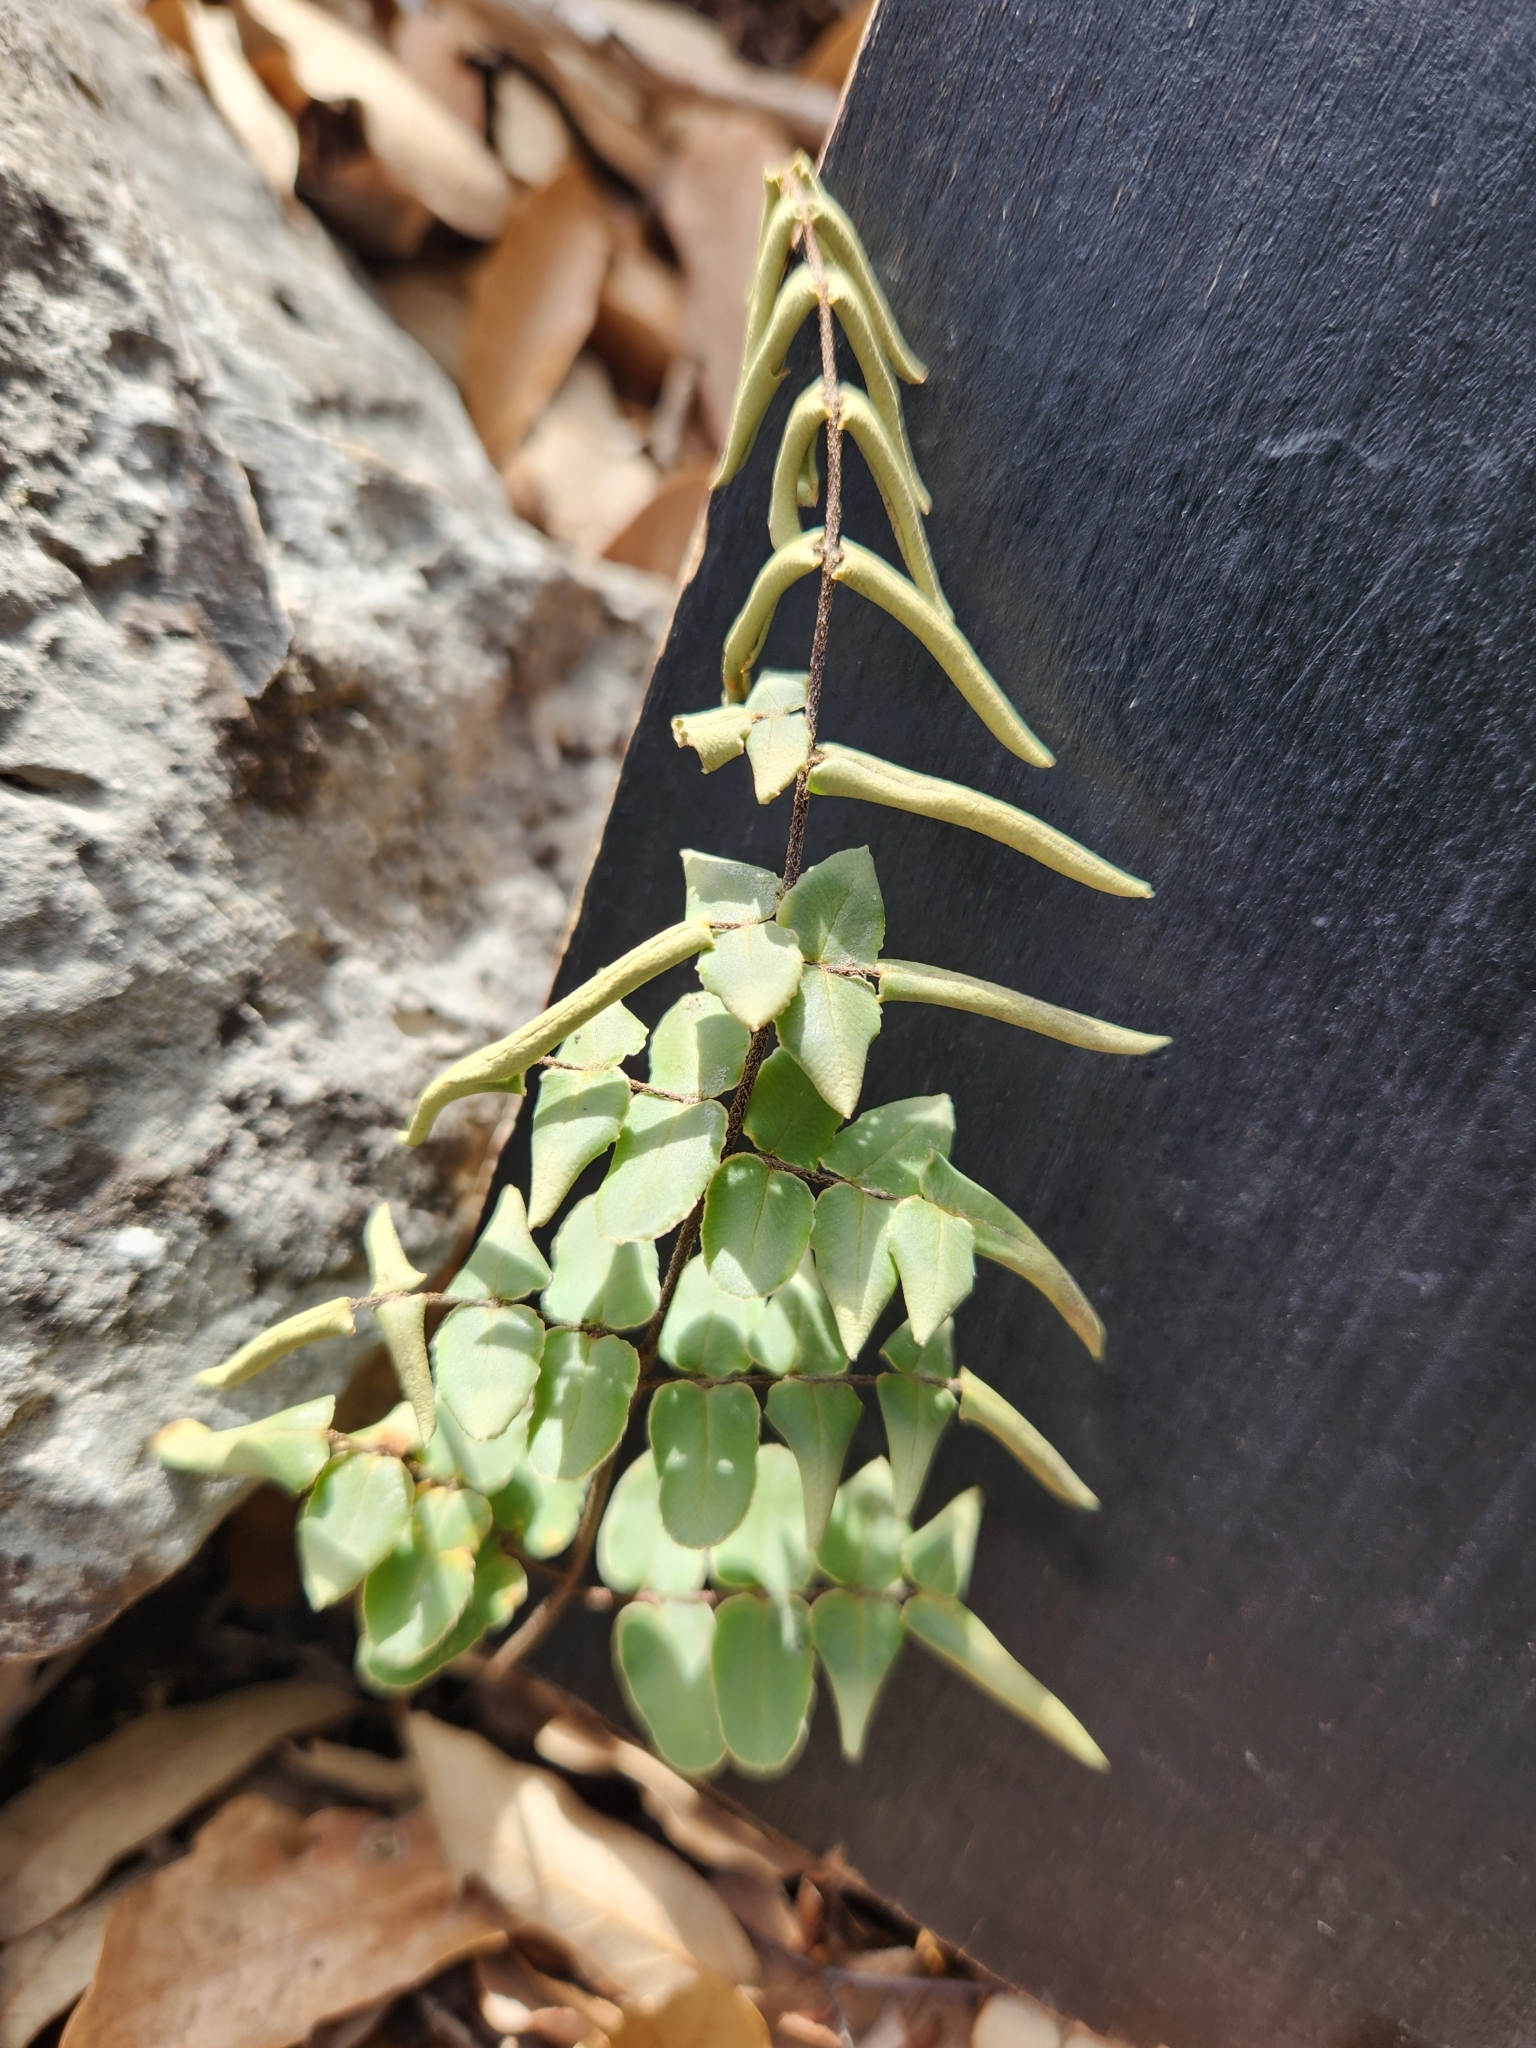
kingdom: Plantae
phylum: Tracheophyta
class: Polypodiopsida
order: Polypodiales
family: Pteridaceae
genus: Pellaea
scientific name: Pellaea atropurpurea
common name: Hairy cliffbrake
